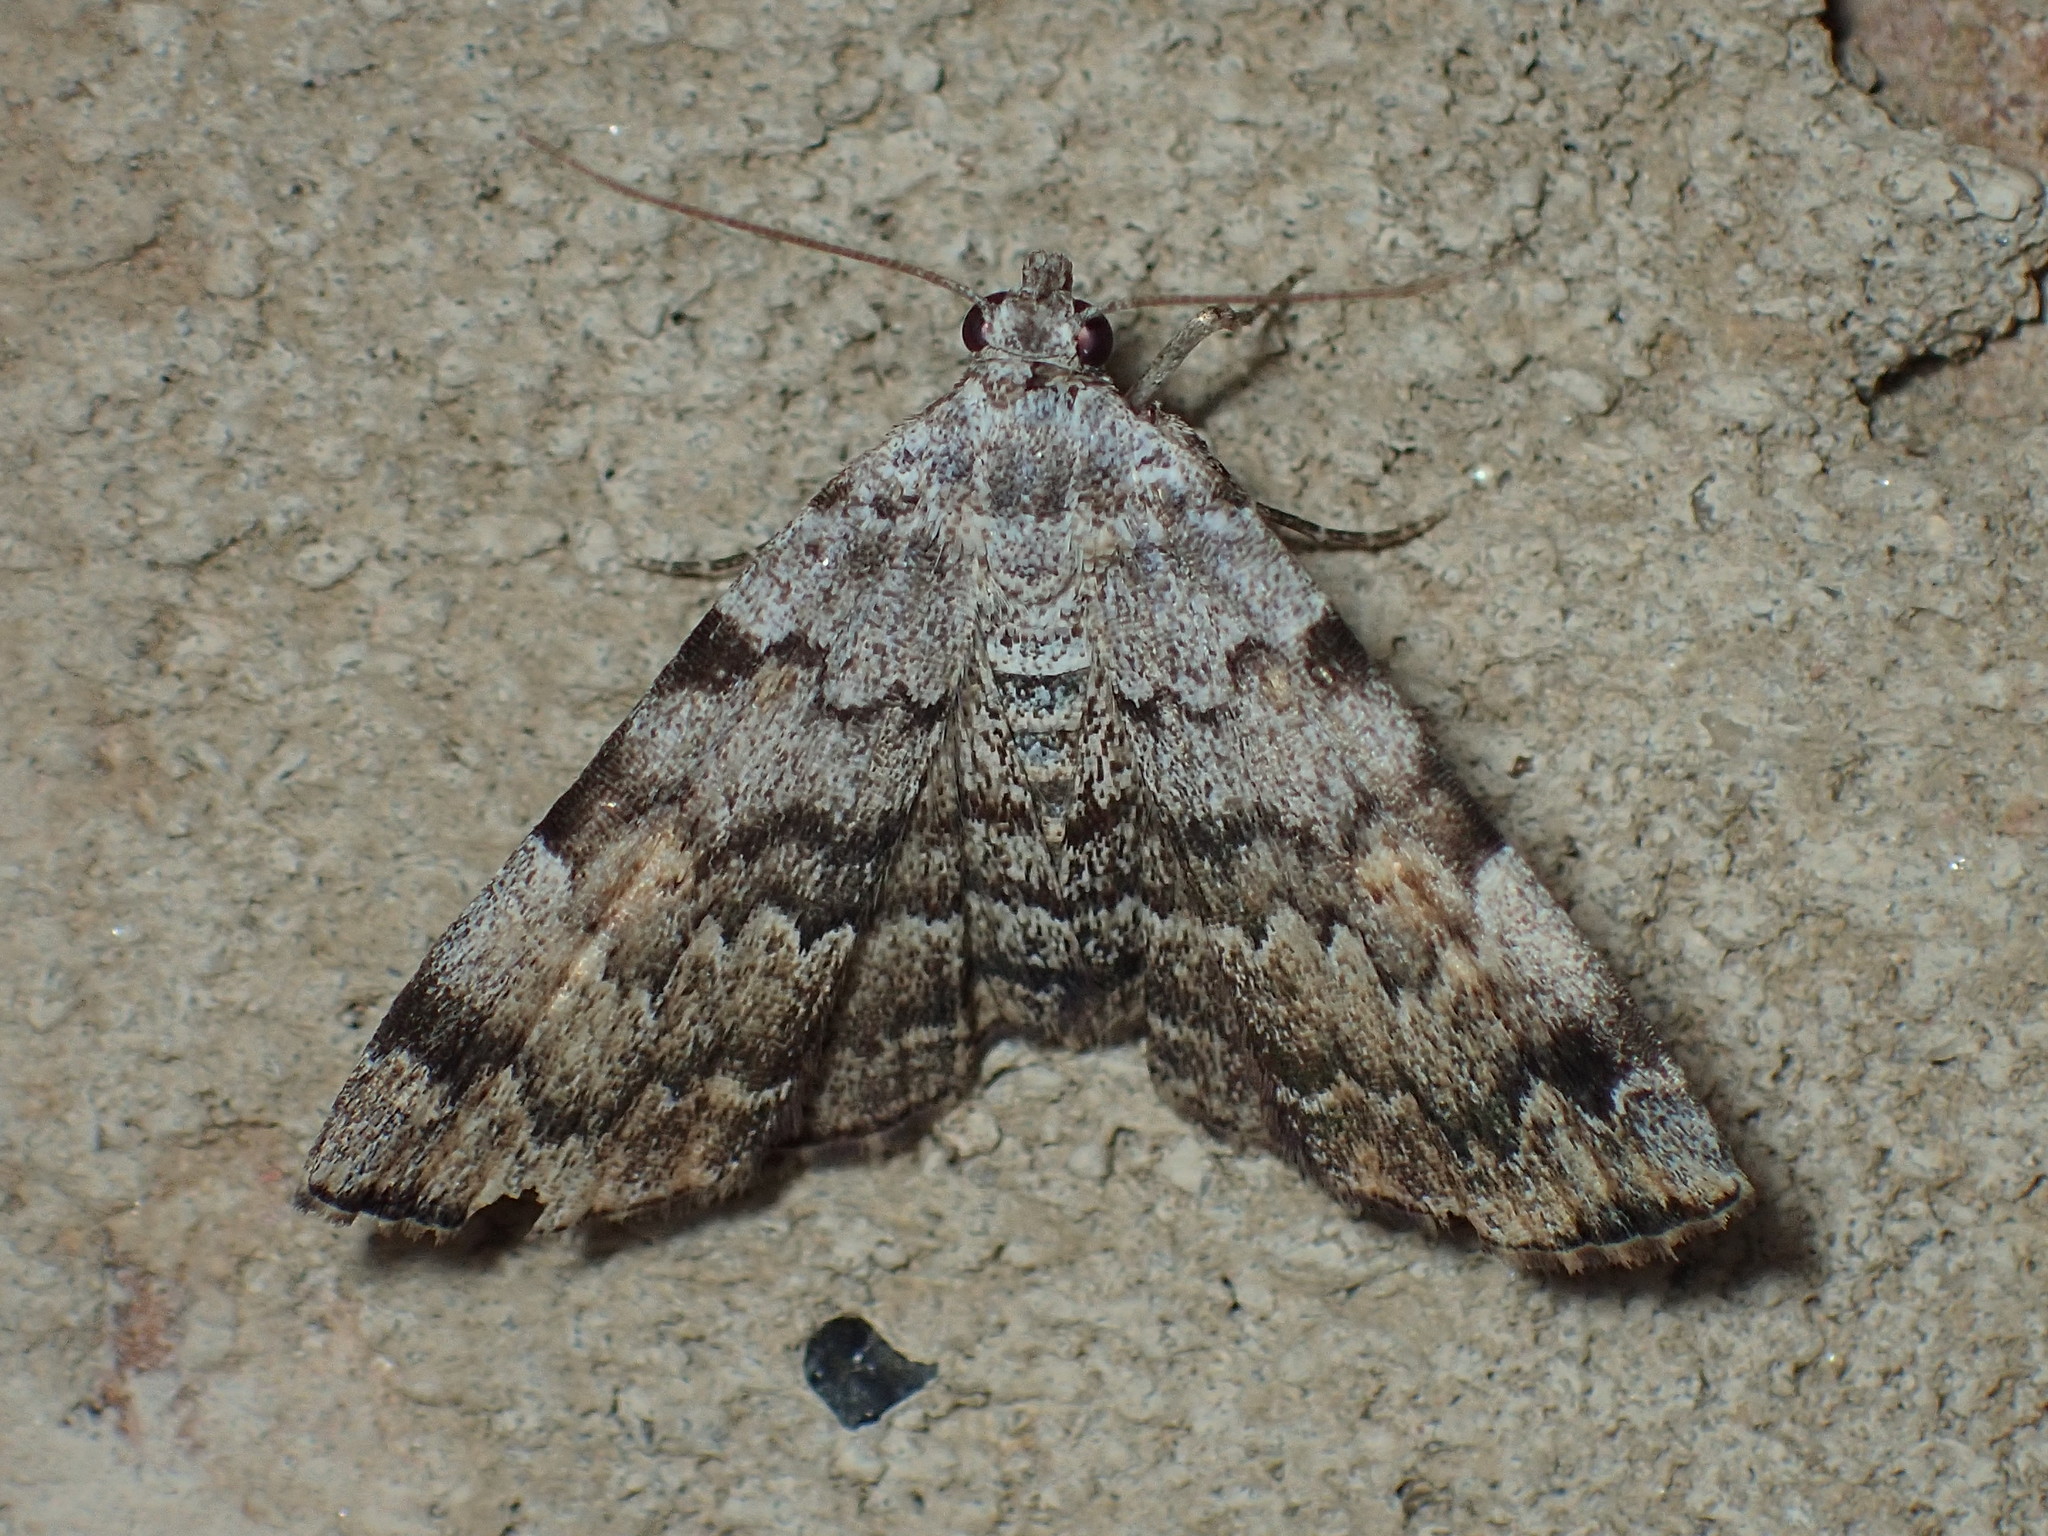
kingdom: Animalia
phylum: Arthropoda
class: Insecta
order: Lepidoptera
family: Erebidae
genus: Idia
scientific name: Idia americalis
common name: American idia moth
